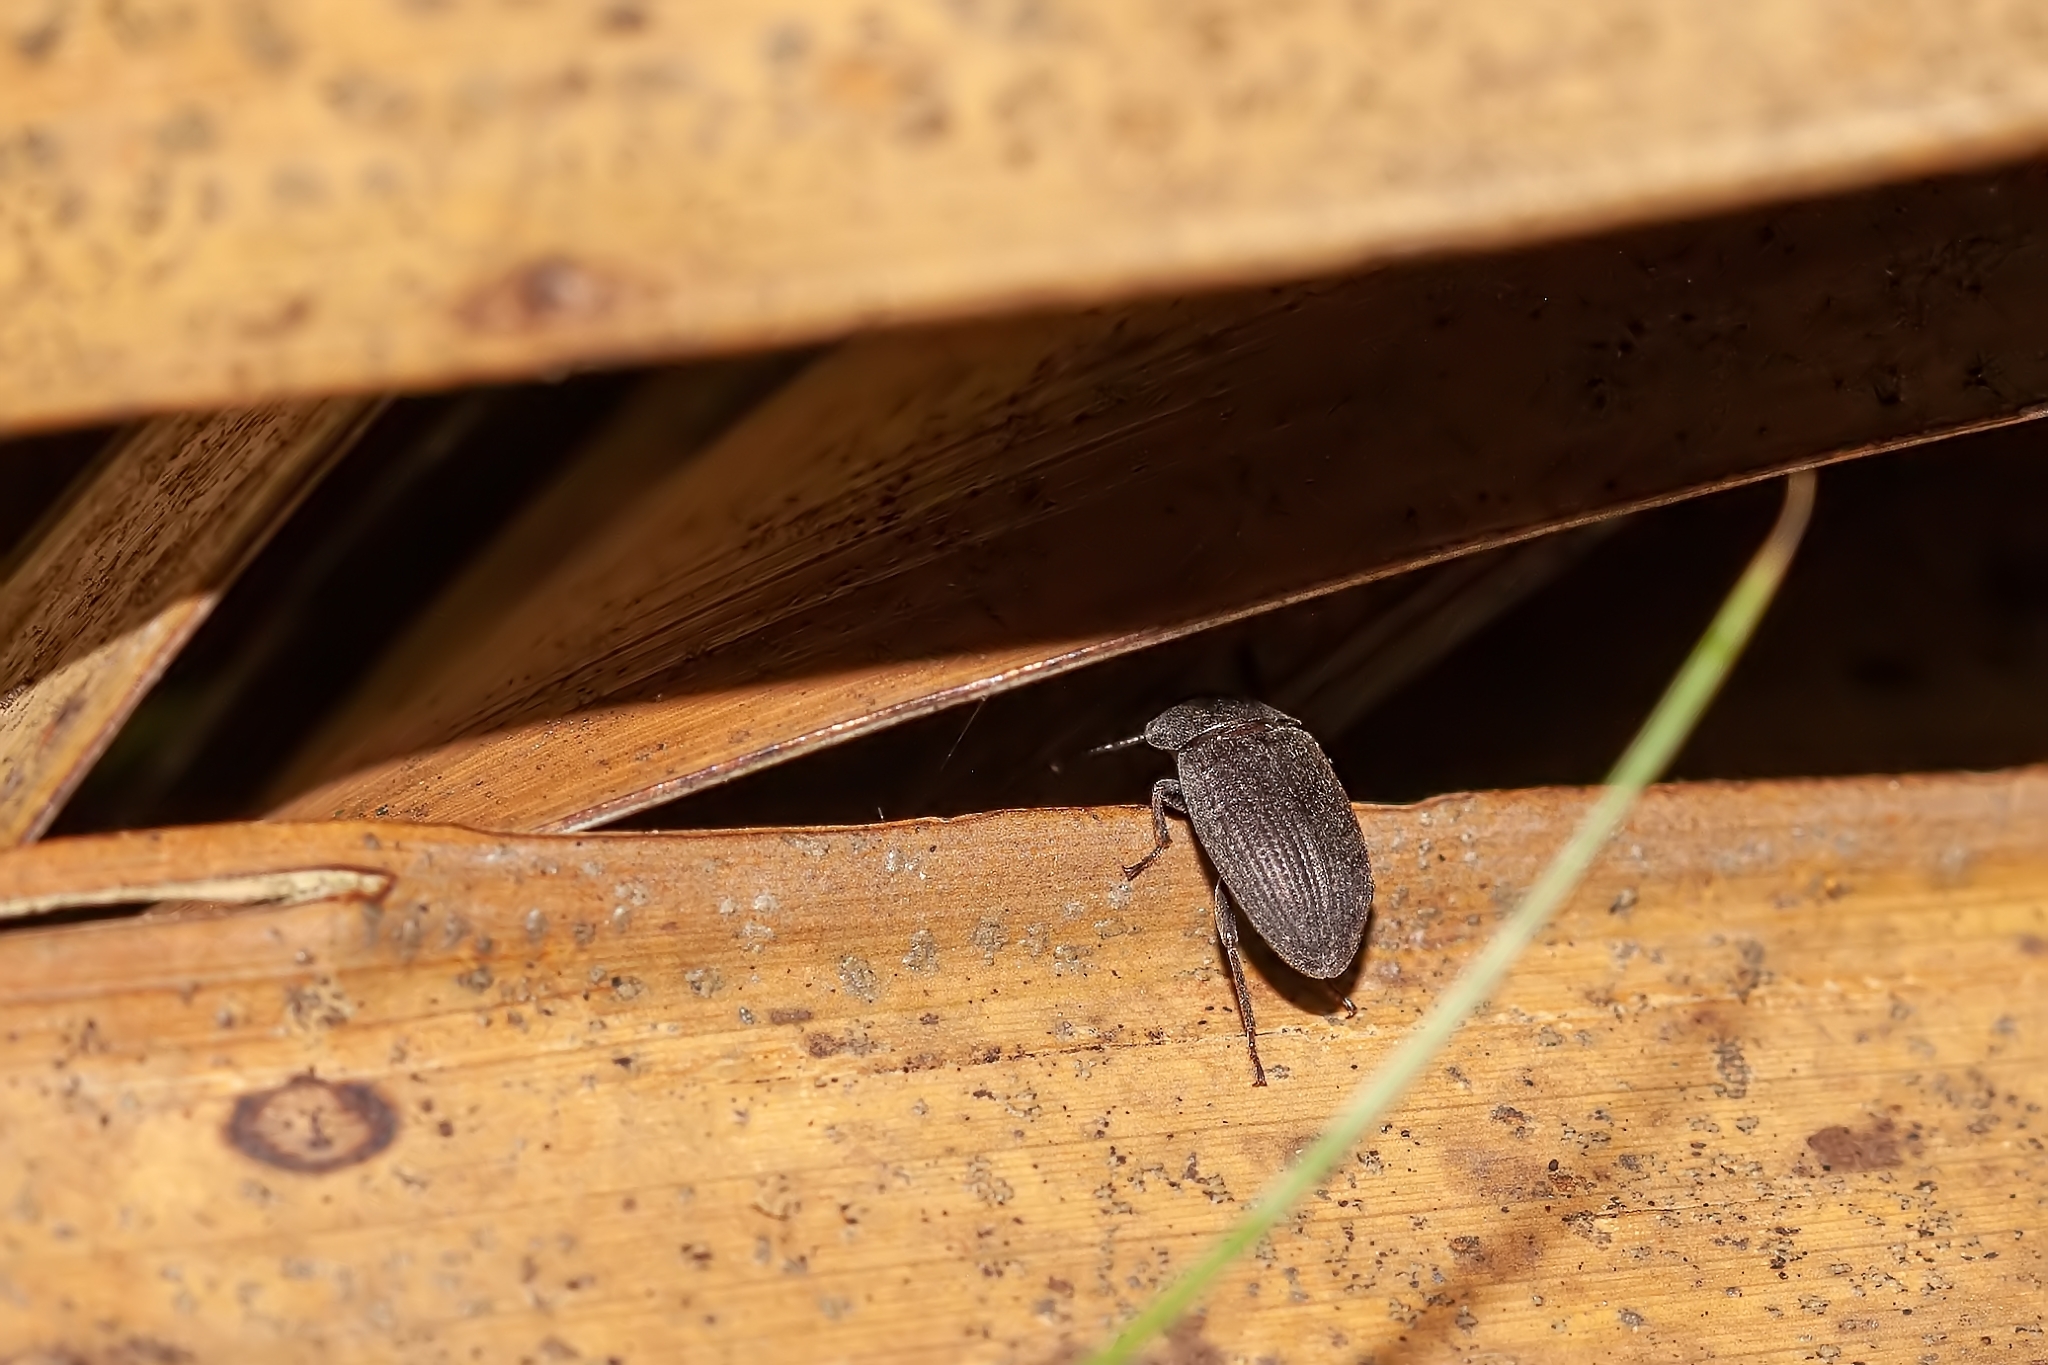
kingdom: Animalia
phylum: Arthropoda
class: Insecta
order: Coleoptera
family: Tenebrionidae
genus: Blapstinus
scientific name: Blapstinus fortis
